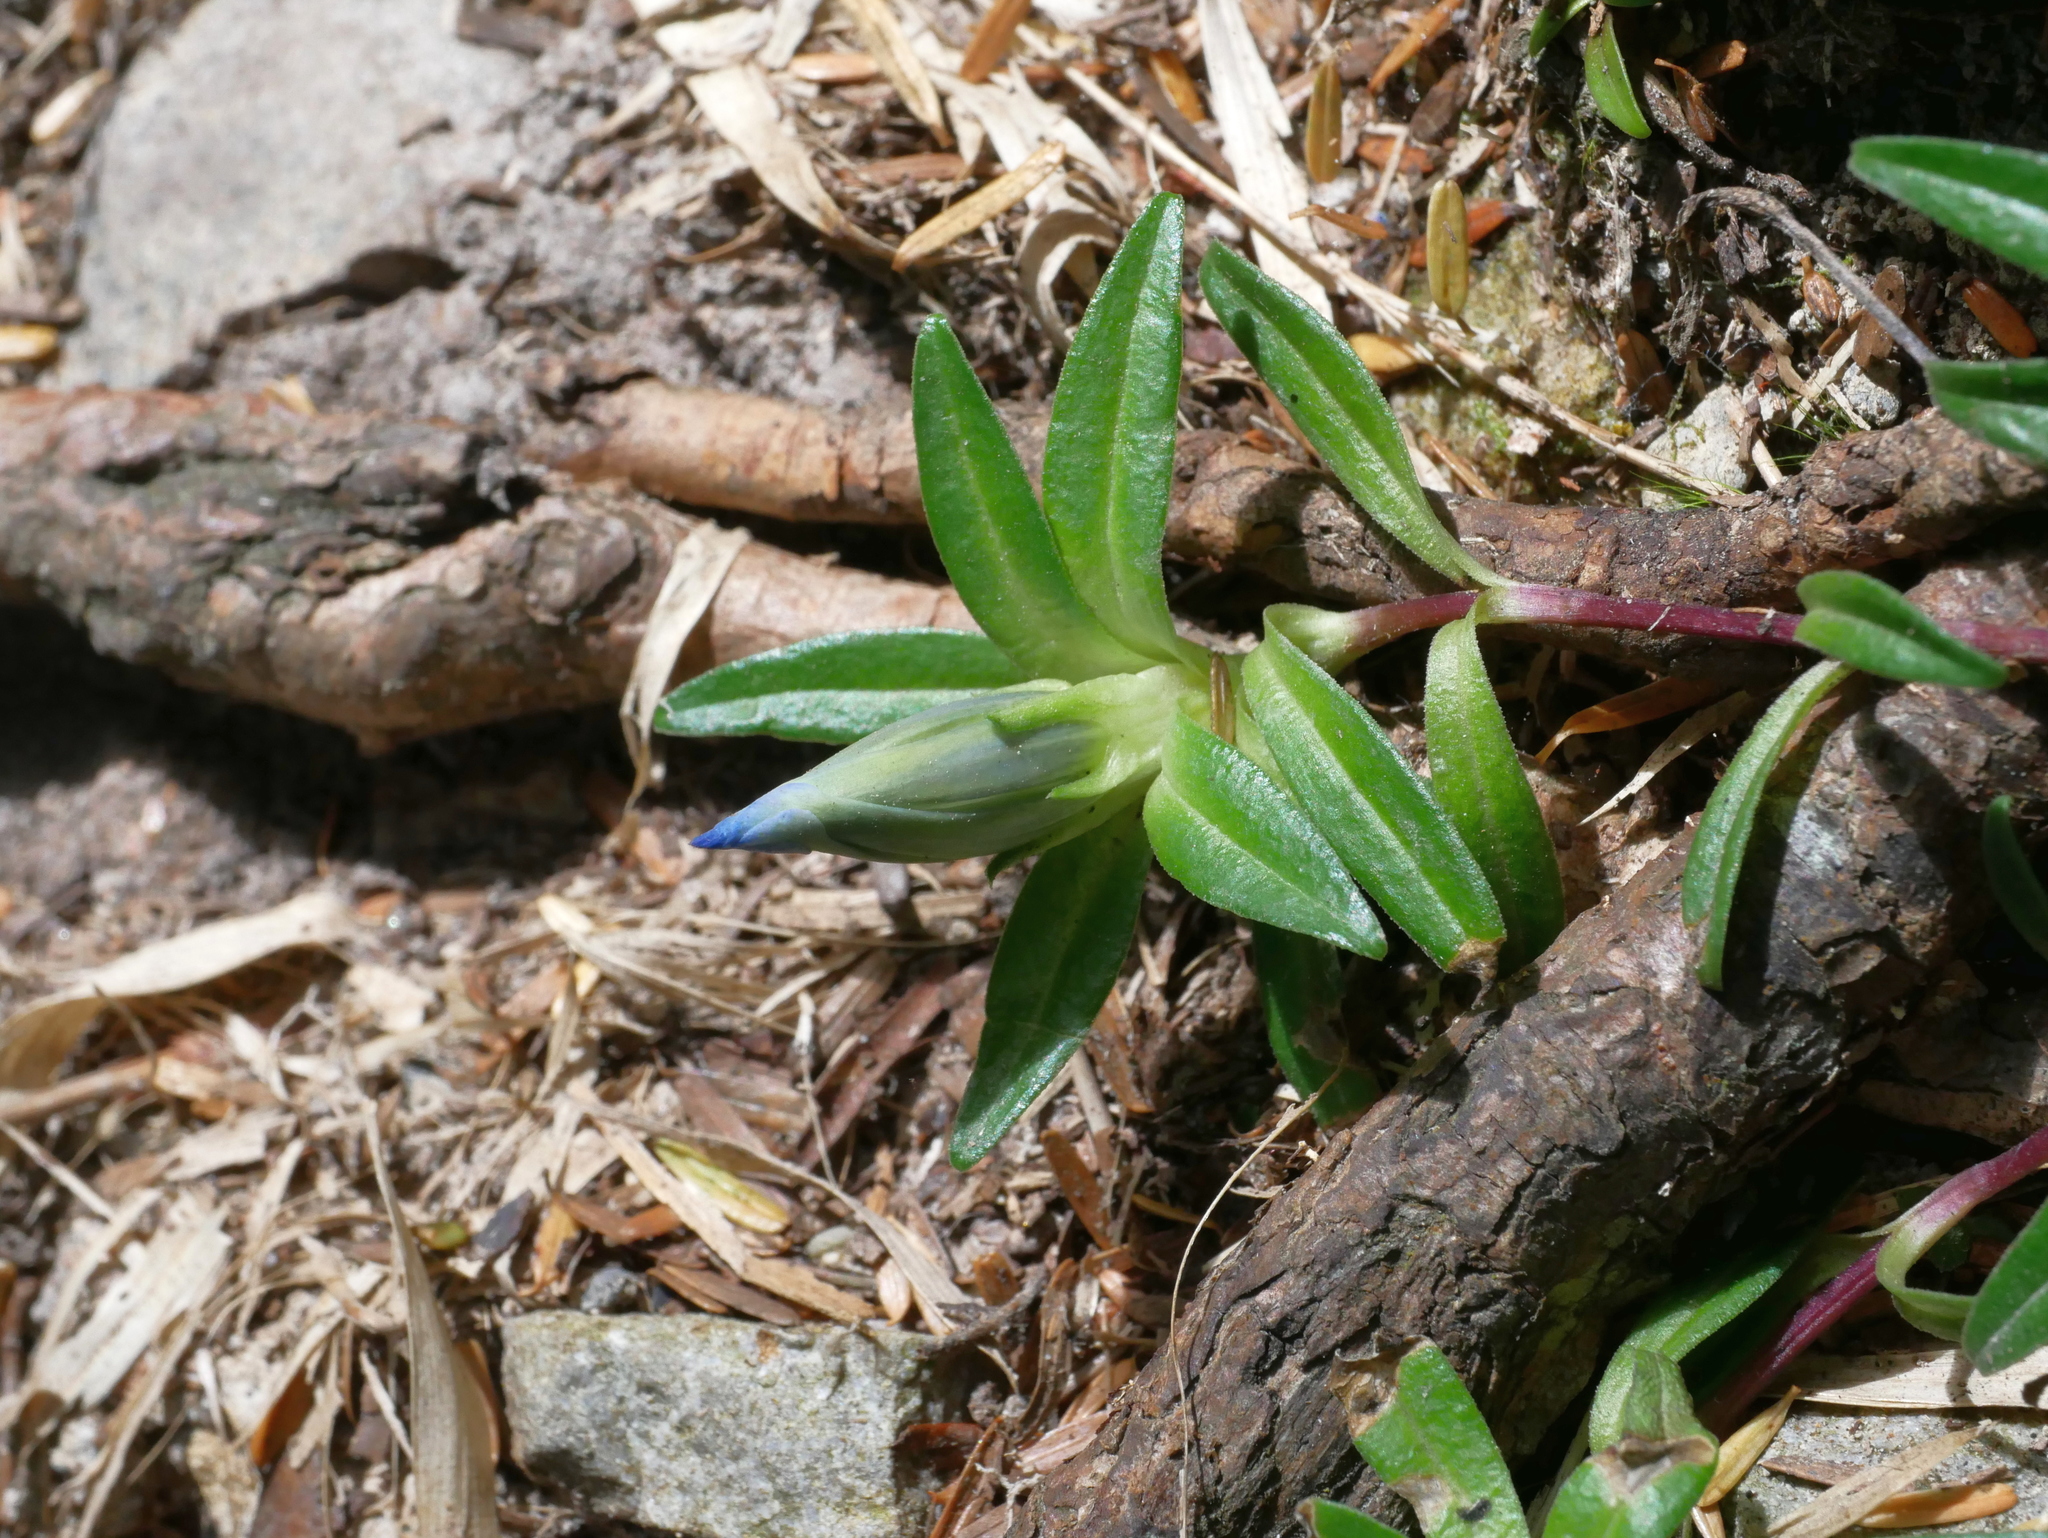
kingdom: Plantae
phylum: Tracheophyta
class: Magnoliopsida
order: Gentianales
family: Gentianaceae
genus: Gentiana
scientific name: Gentiana davidii
